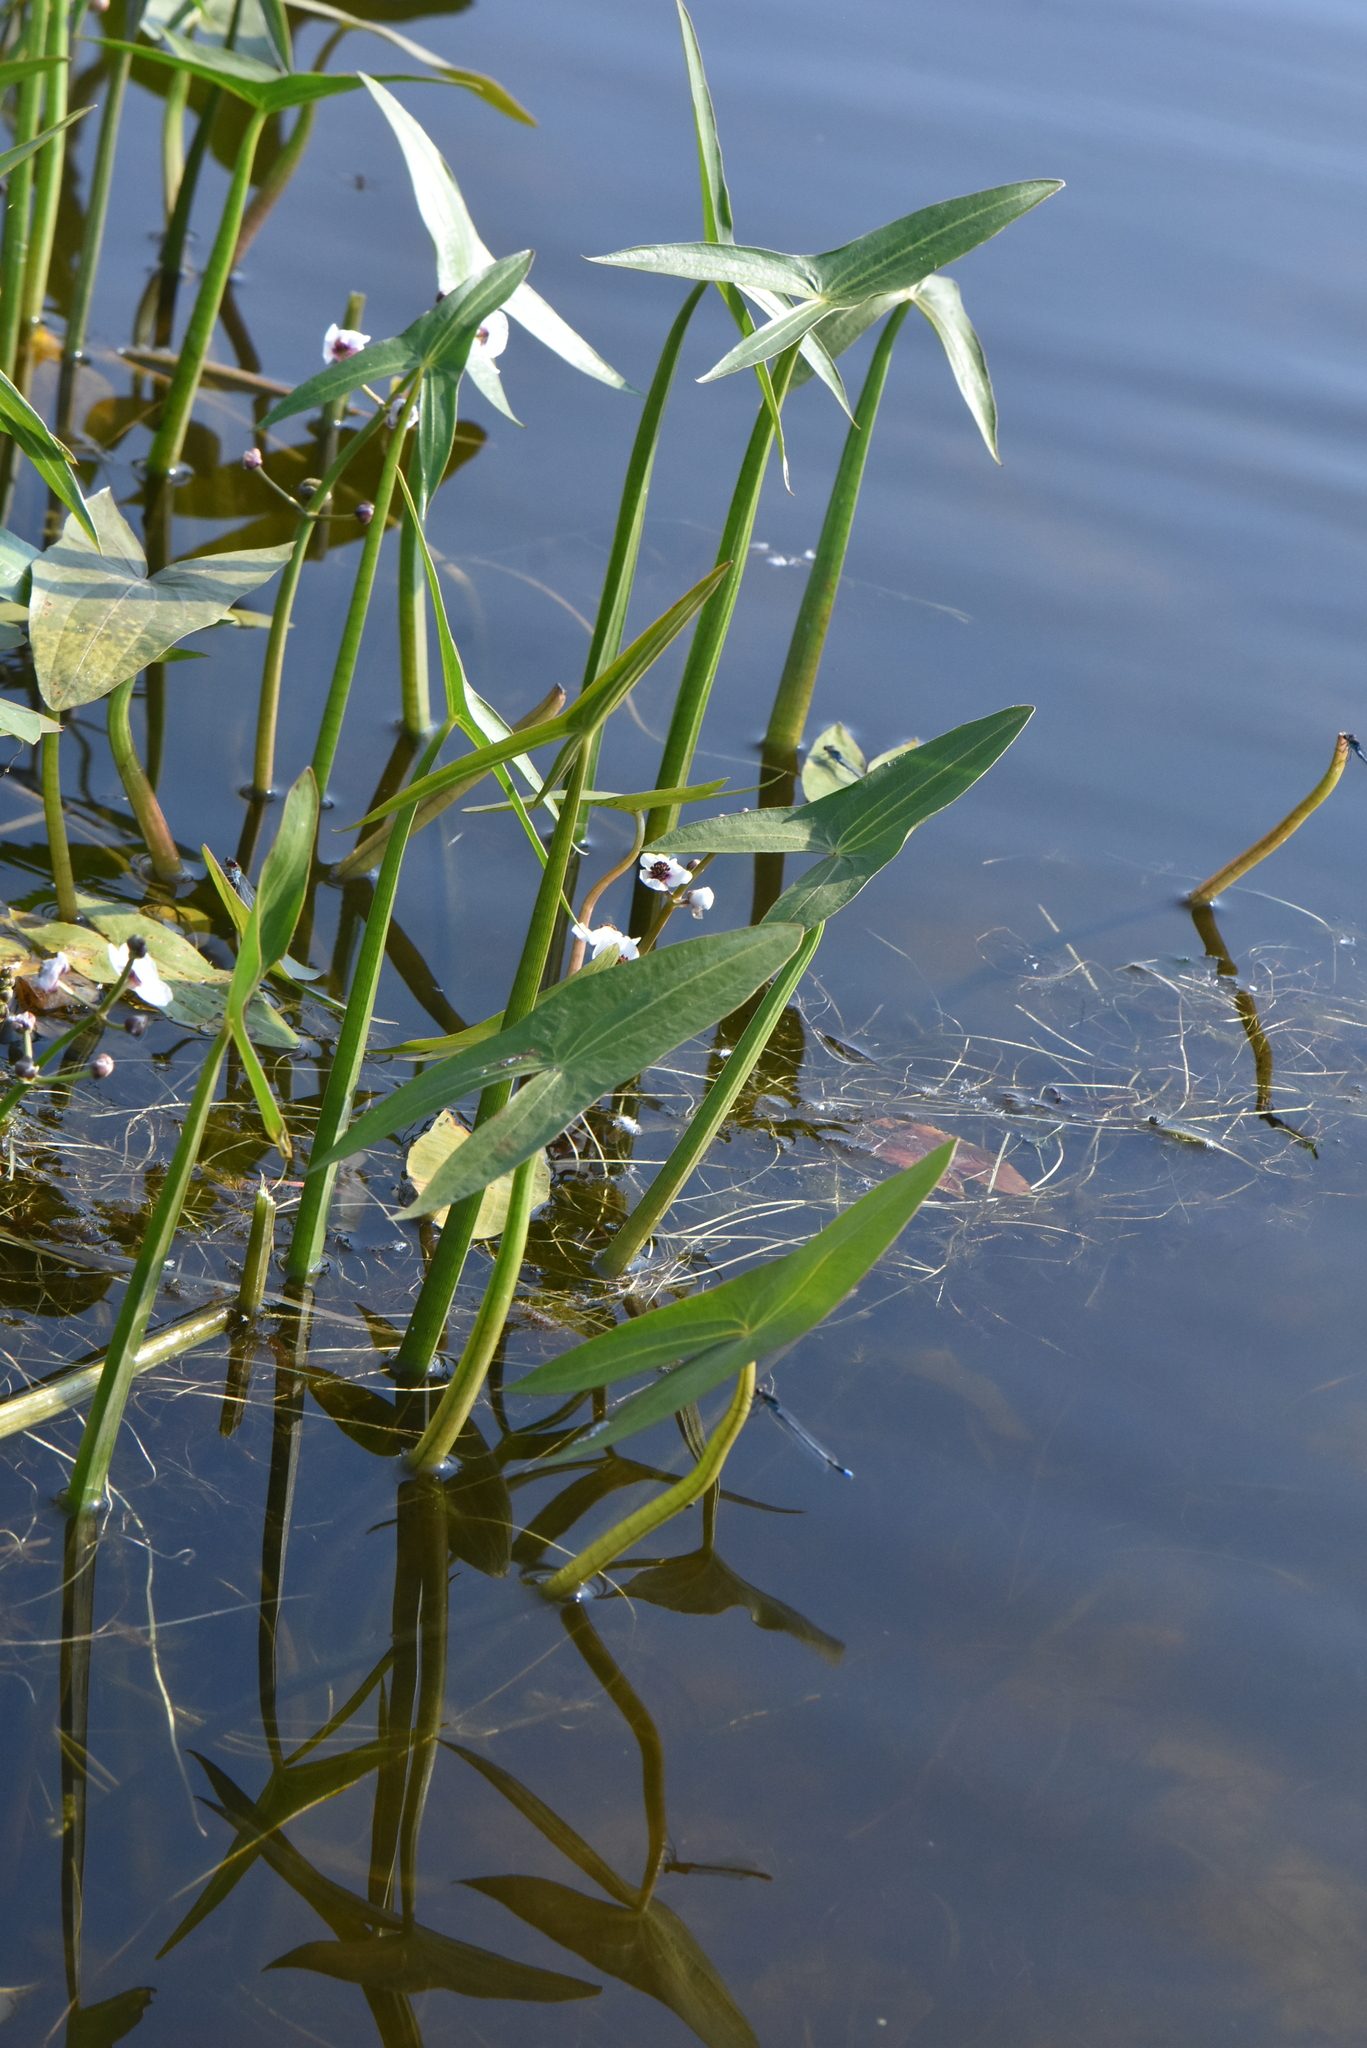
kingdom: Plantae
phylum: Tracheophyta
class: Liliopsida
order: Alismatales
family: Alismataceae
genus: Sagittaria
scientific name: Sagittaria sagittifolia
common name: Arrowhead
